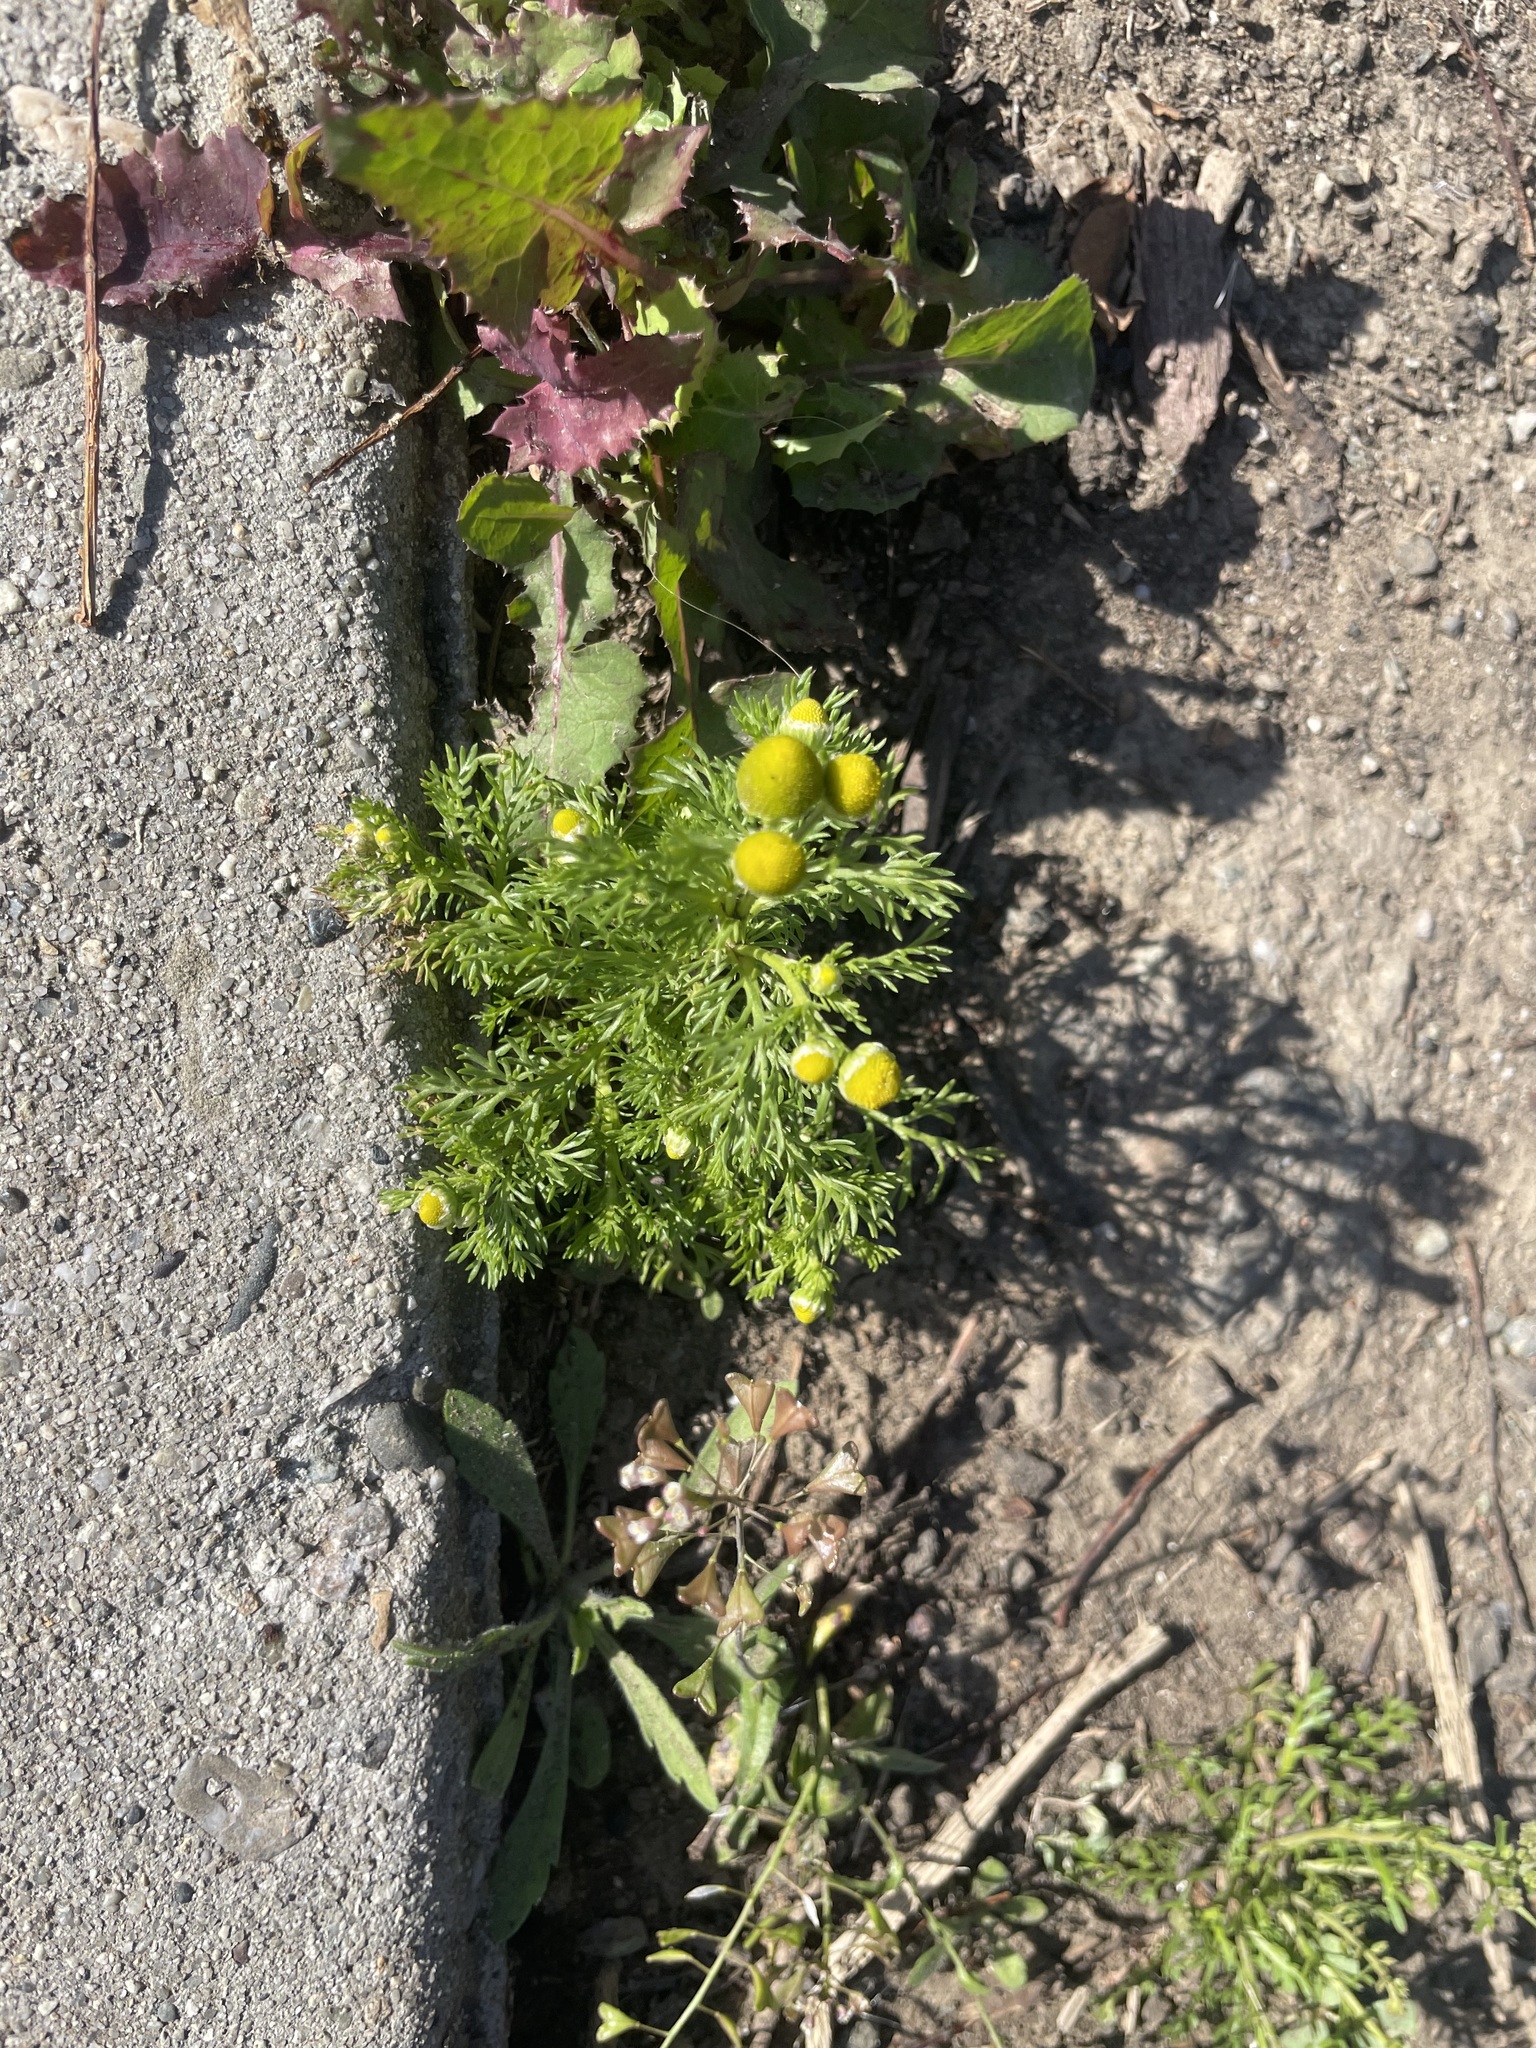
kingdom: Plantae
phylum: Tracheophyta
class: Magnoliopsida
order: Asterales
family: Asteraceae
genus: Matricaria
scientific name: Matricaria discoidea
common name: Disc mayweed
